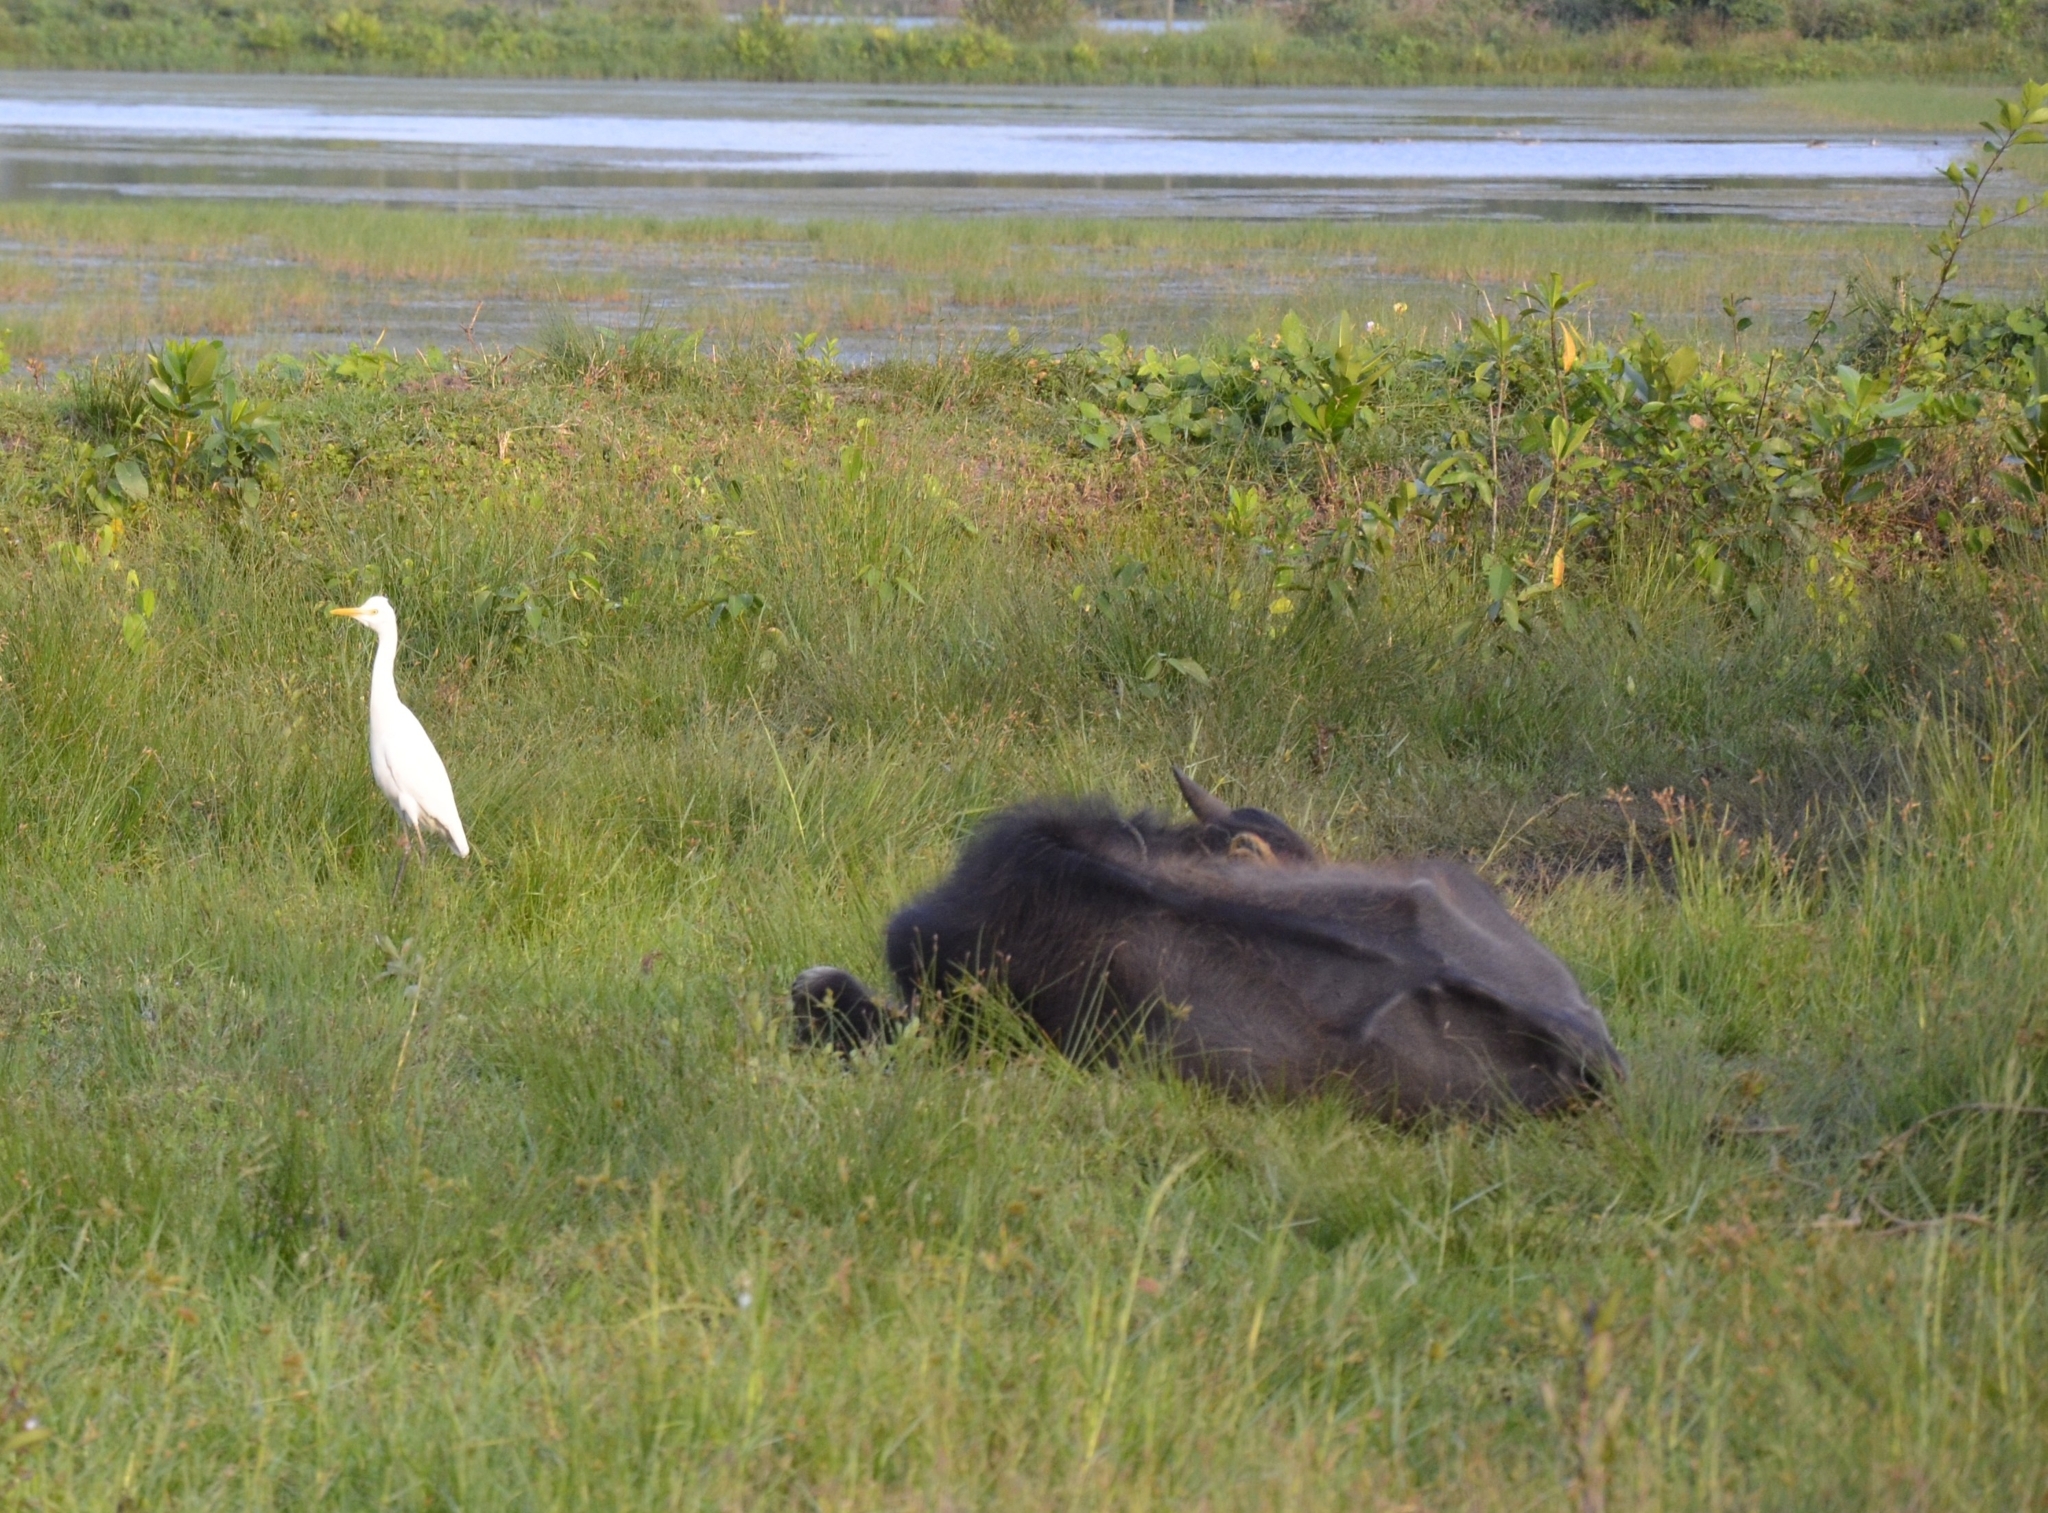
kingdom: Animalia
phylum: Chordata
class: Aves
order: Pelecaniformes
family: Ardeidae
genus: Bubulcus
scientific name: Bubulcus coromandus
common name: Eastern cattle egret
